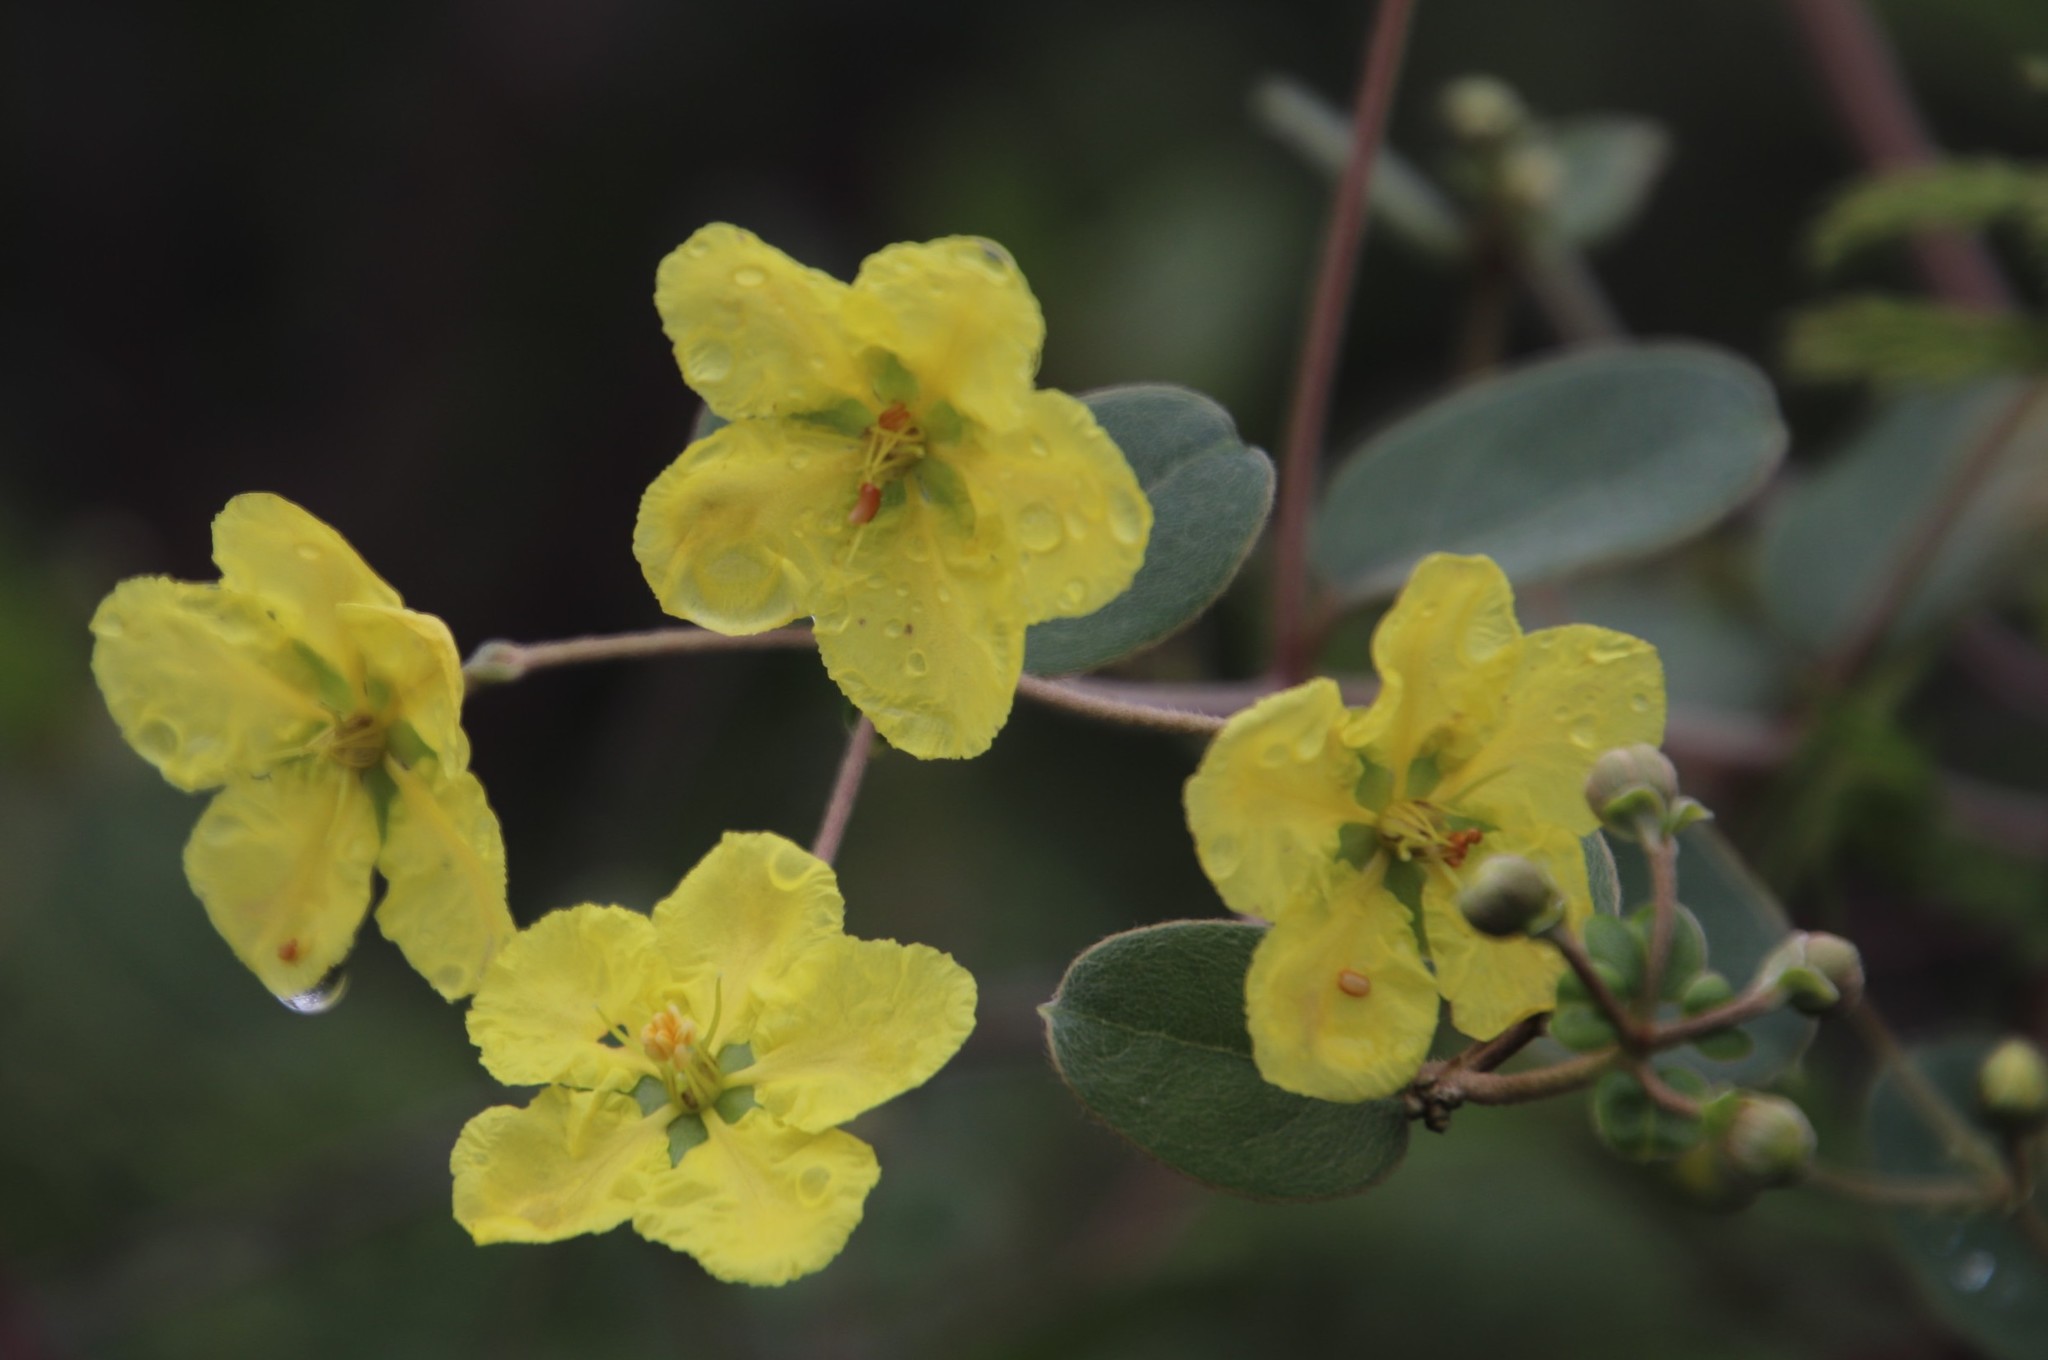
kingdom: Plantae
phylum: Tracheophyta
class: Magnoliopsida
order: Malpighiales
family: Malpighiaceae
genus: Sphedamnocarpus
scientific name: Sphedamnocarpus pruriens
